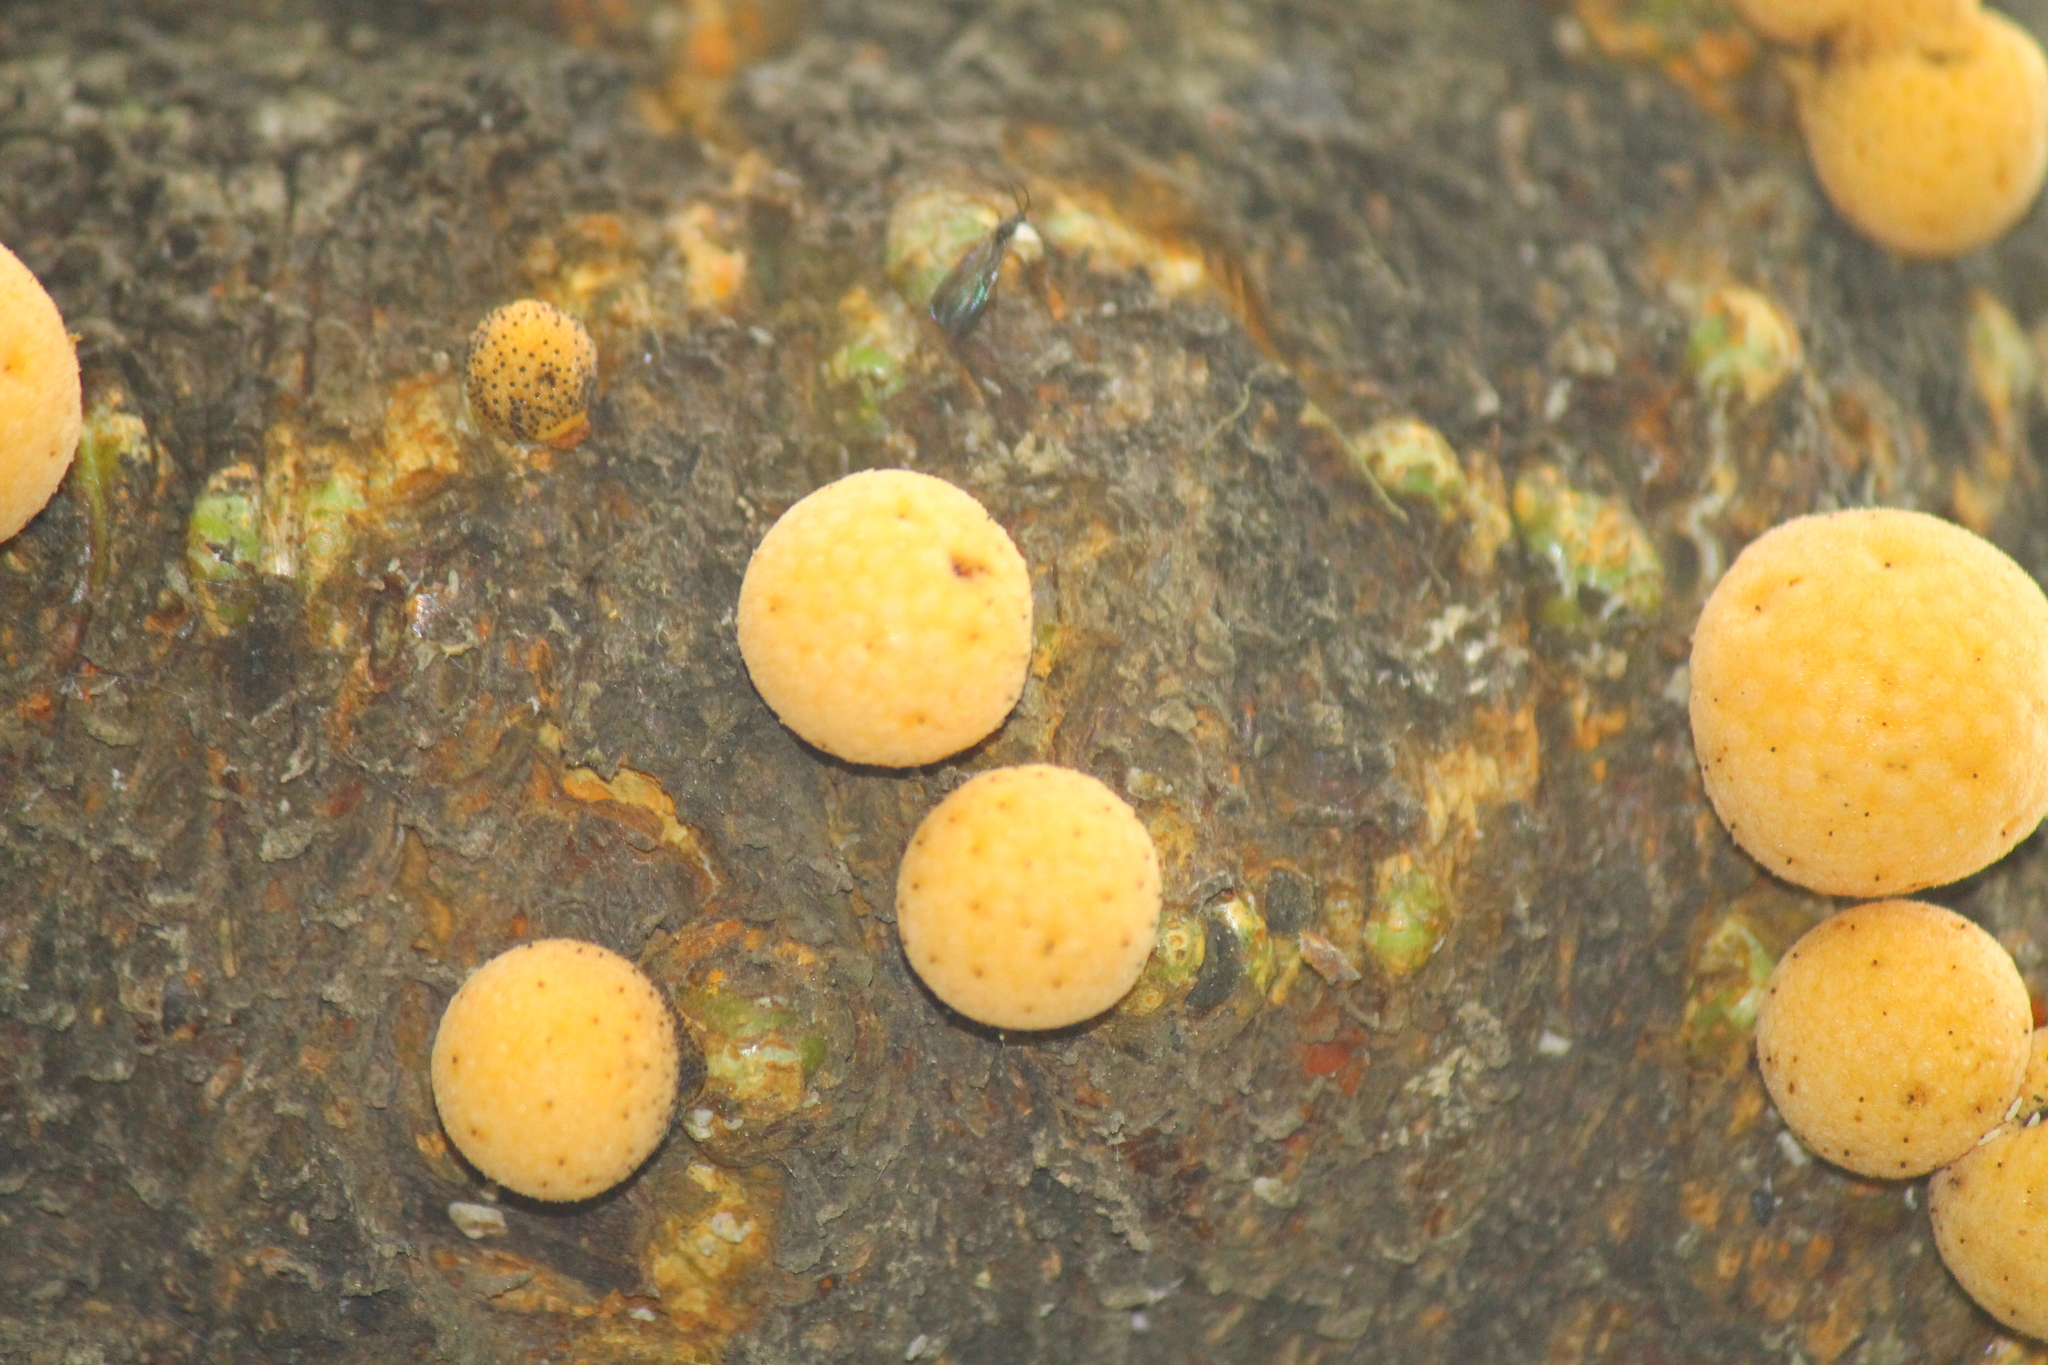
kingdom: Fungi
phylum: Ascomycota
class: Leotiomycetes
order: Cyttariales
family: Cyttariaceae
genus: Cyttaria
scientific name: Cyttaria darwinii
